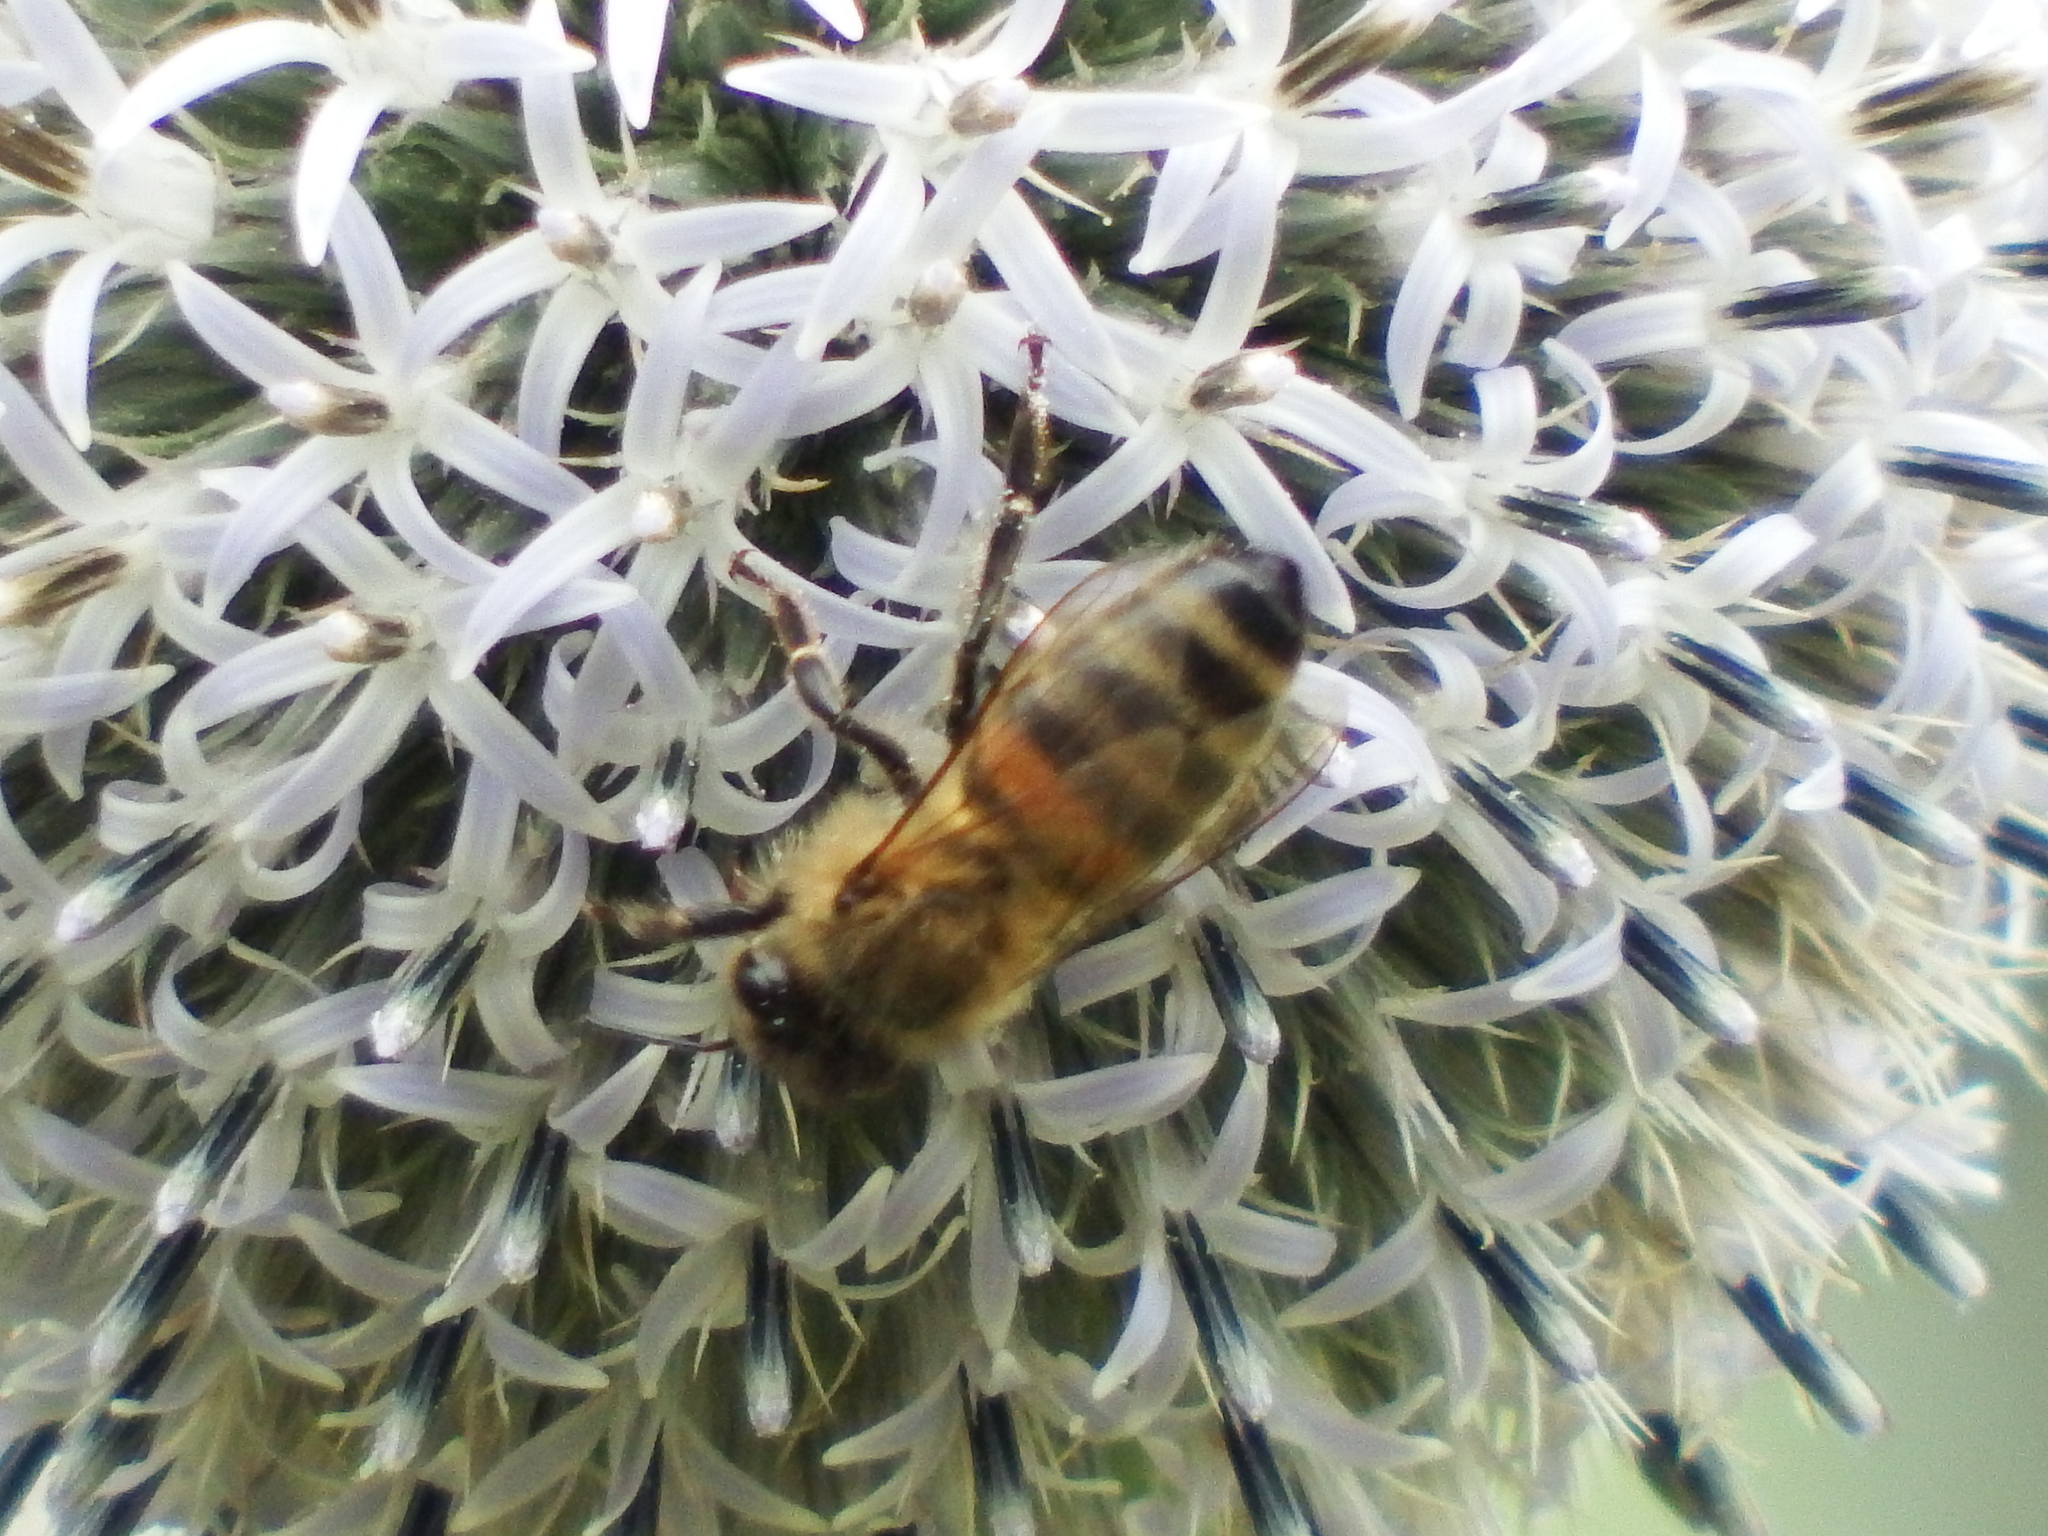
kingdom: Animalia
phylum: Arthropoda
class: Insecta
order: Hymenoptera
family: Apidae
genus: Apis
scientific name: Apis mellifera
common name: Honey bee
